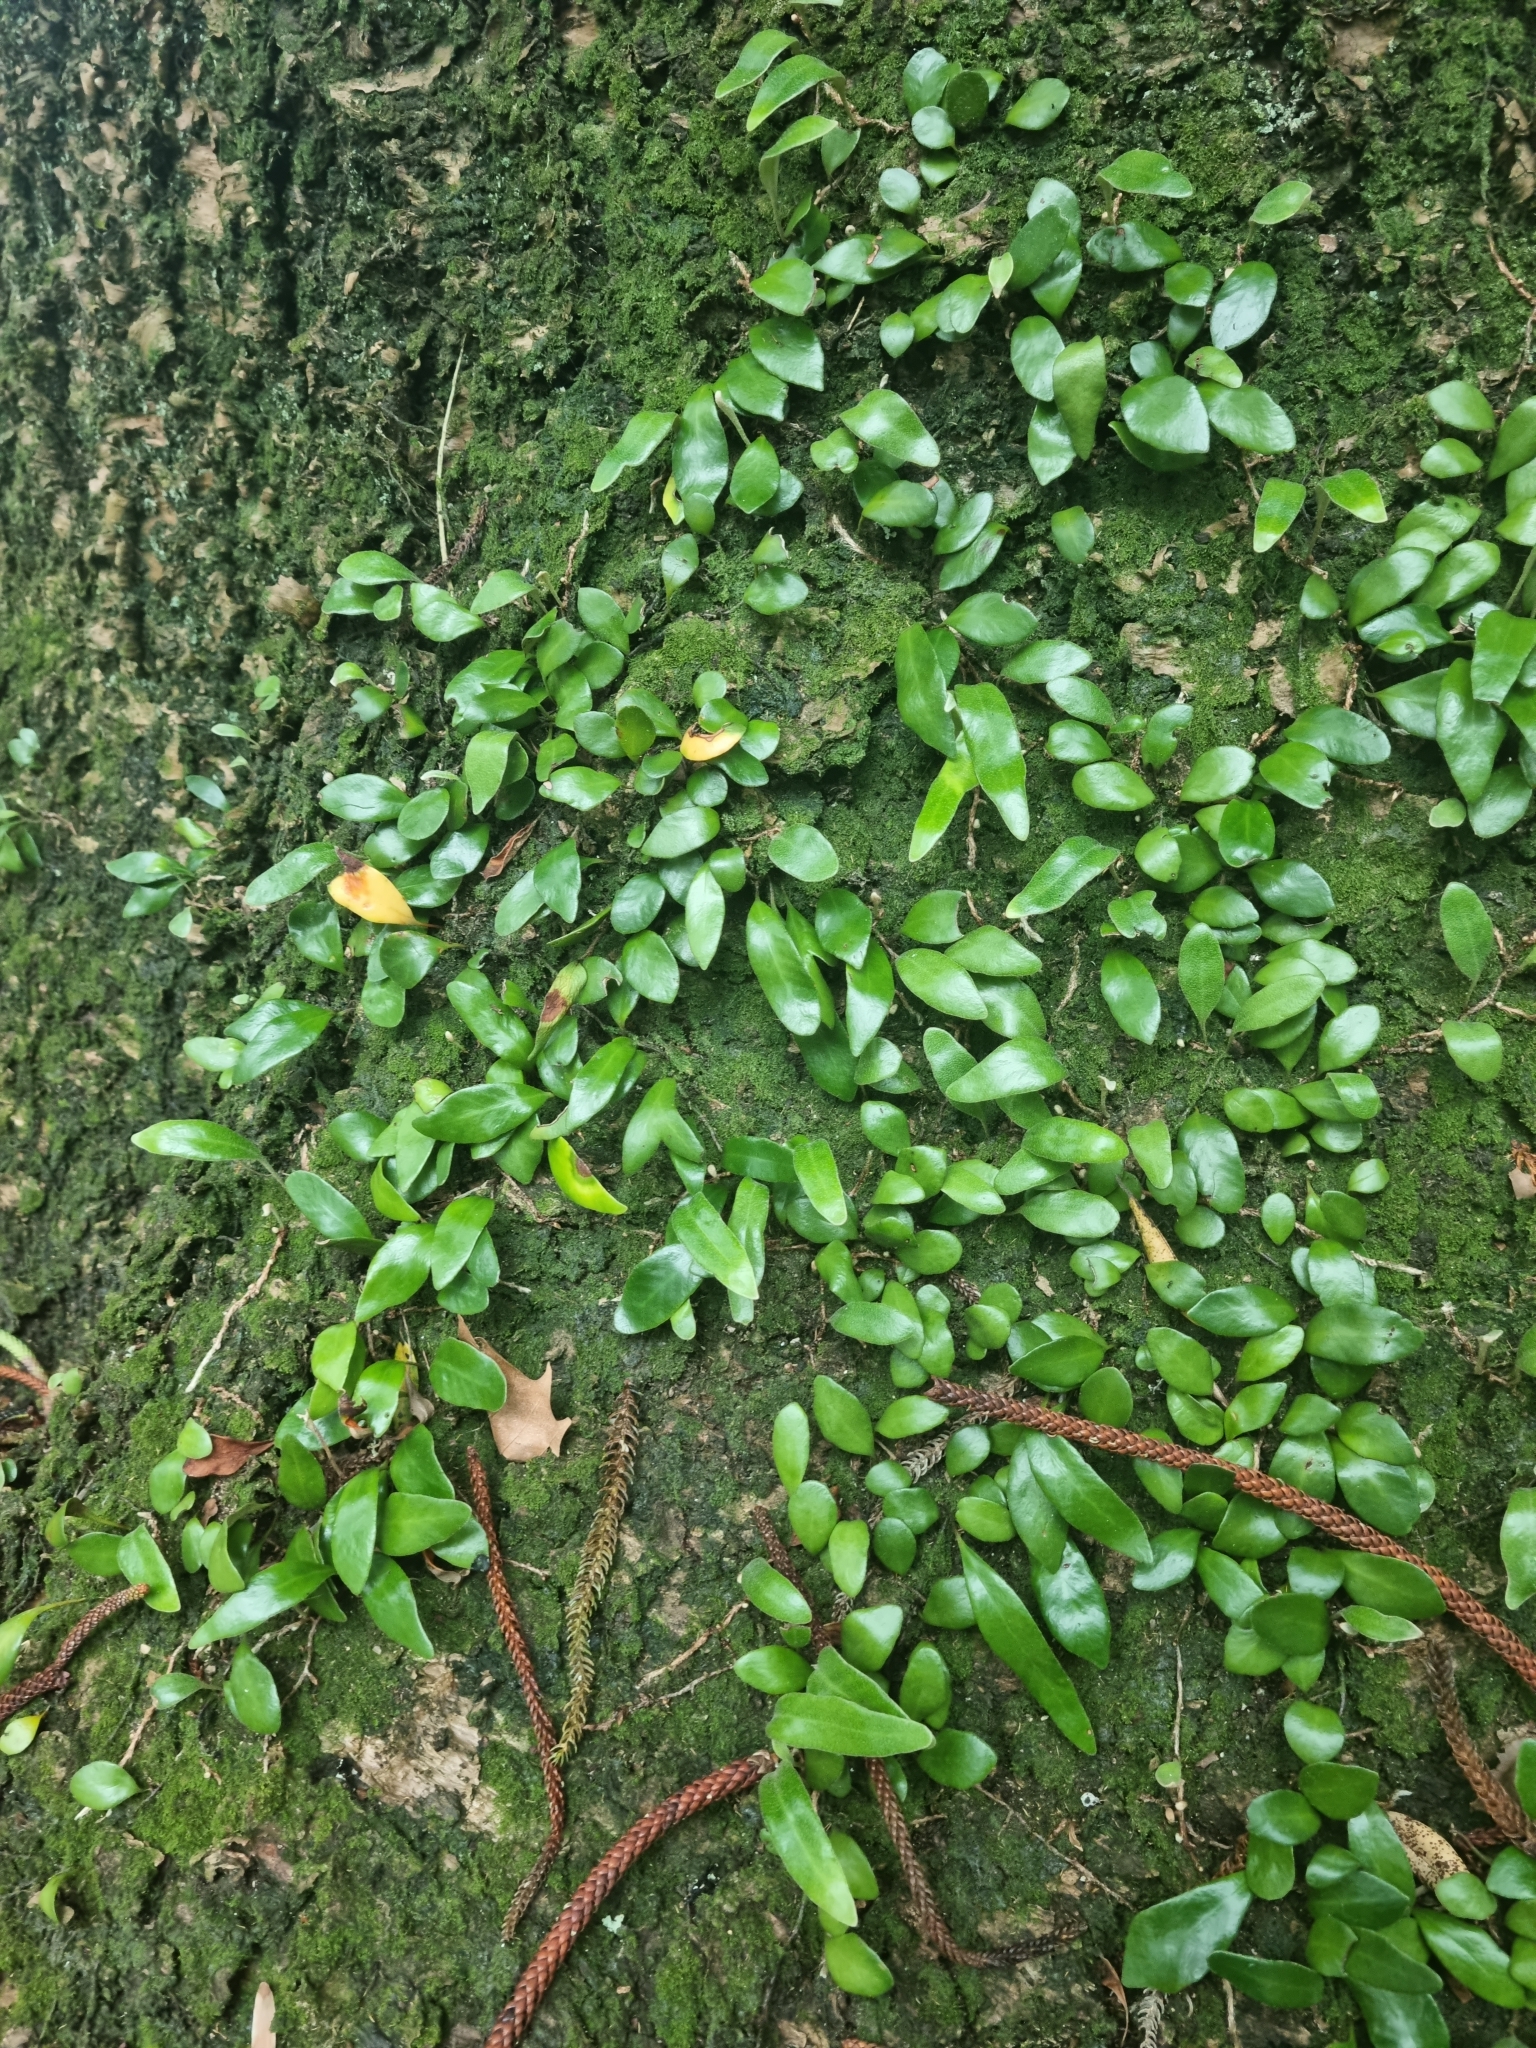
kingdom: Plantae
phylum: Tracheophyta
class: Polypodiopsida
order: Polypodiales
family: Polypodiaceae
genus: Pyrrosia
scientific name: Pyrrosia eleagnifolia
